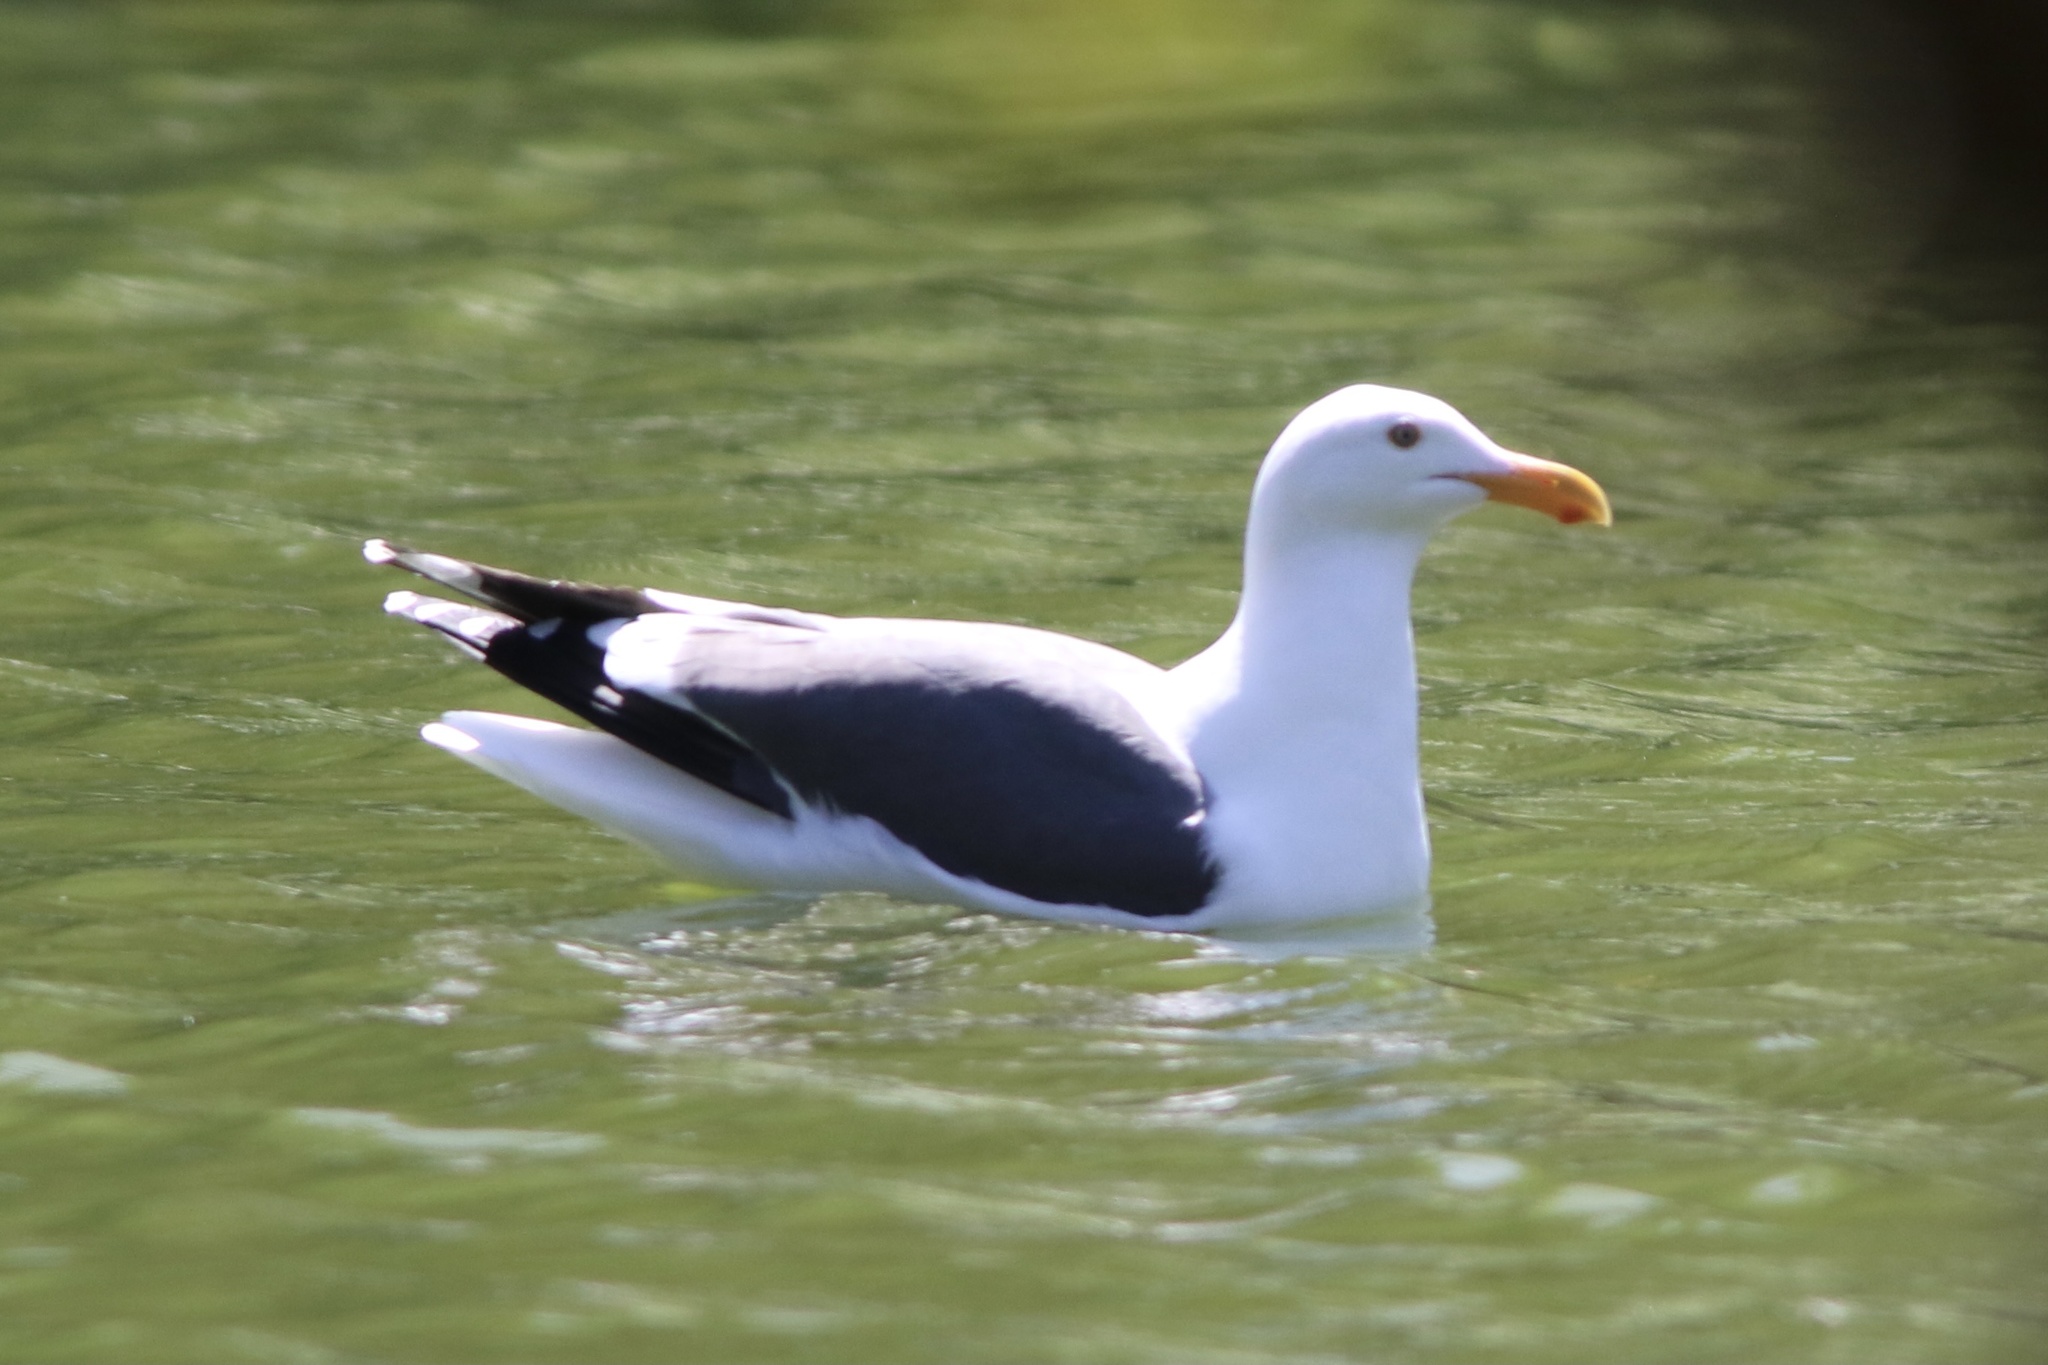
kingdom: Animalia
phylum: Chordata
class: Aves
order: Charadriiformes
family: Laridae
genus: Larus
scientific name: Larus occidentalis
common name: Western gull
